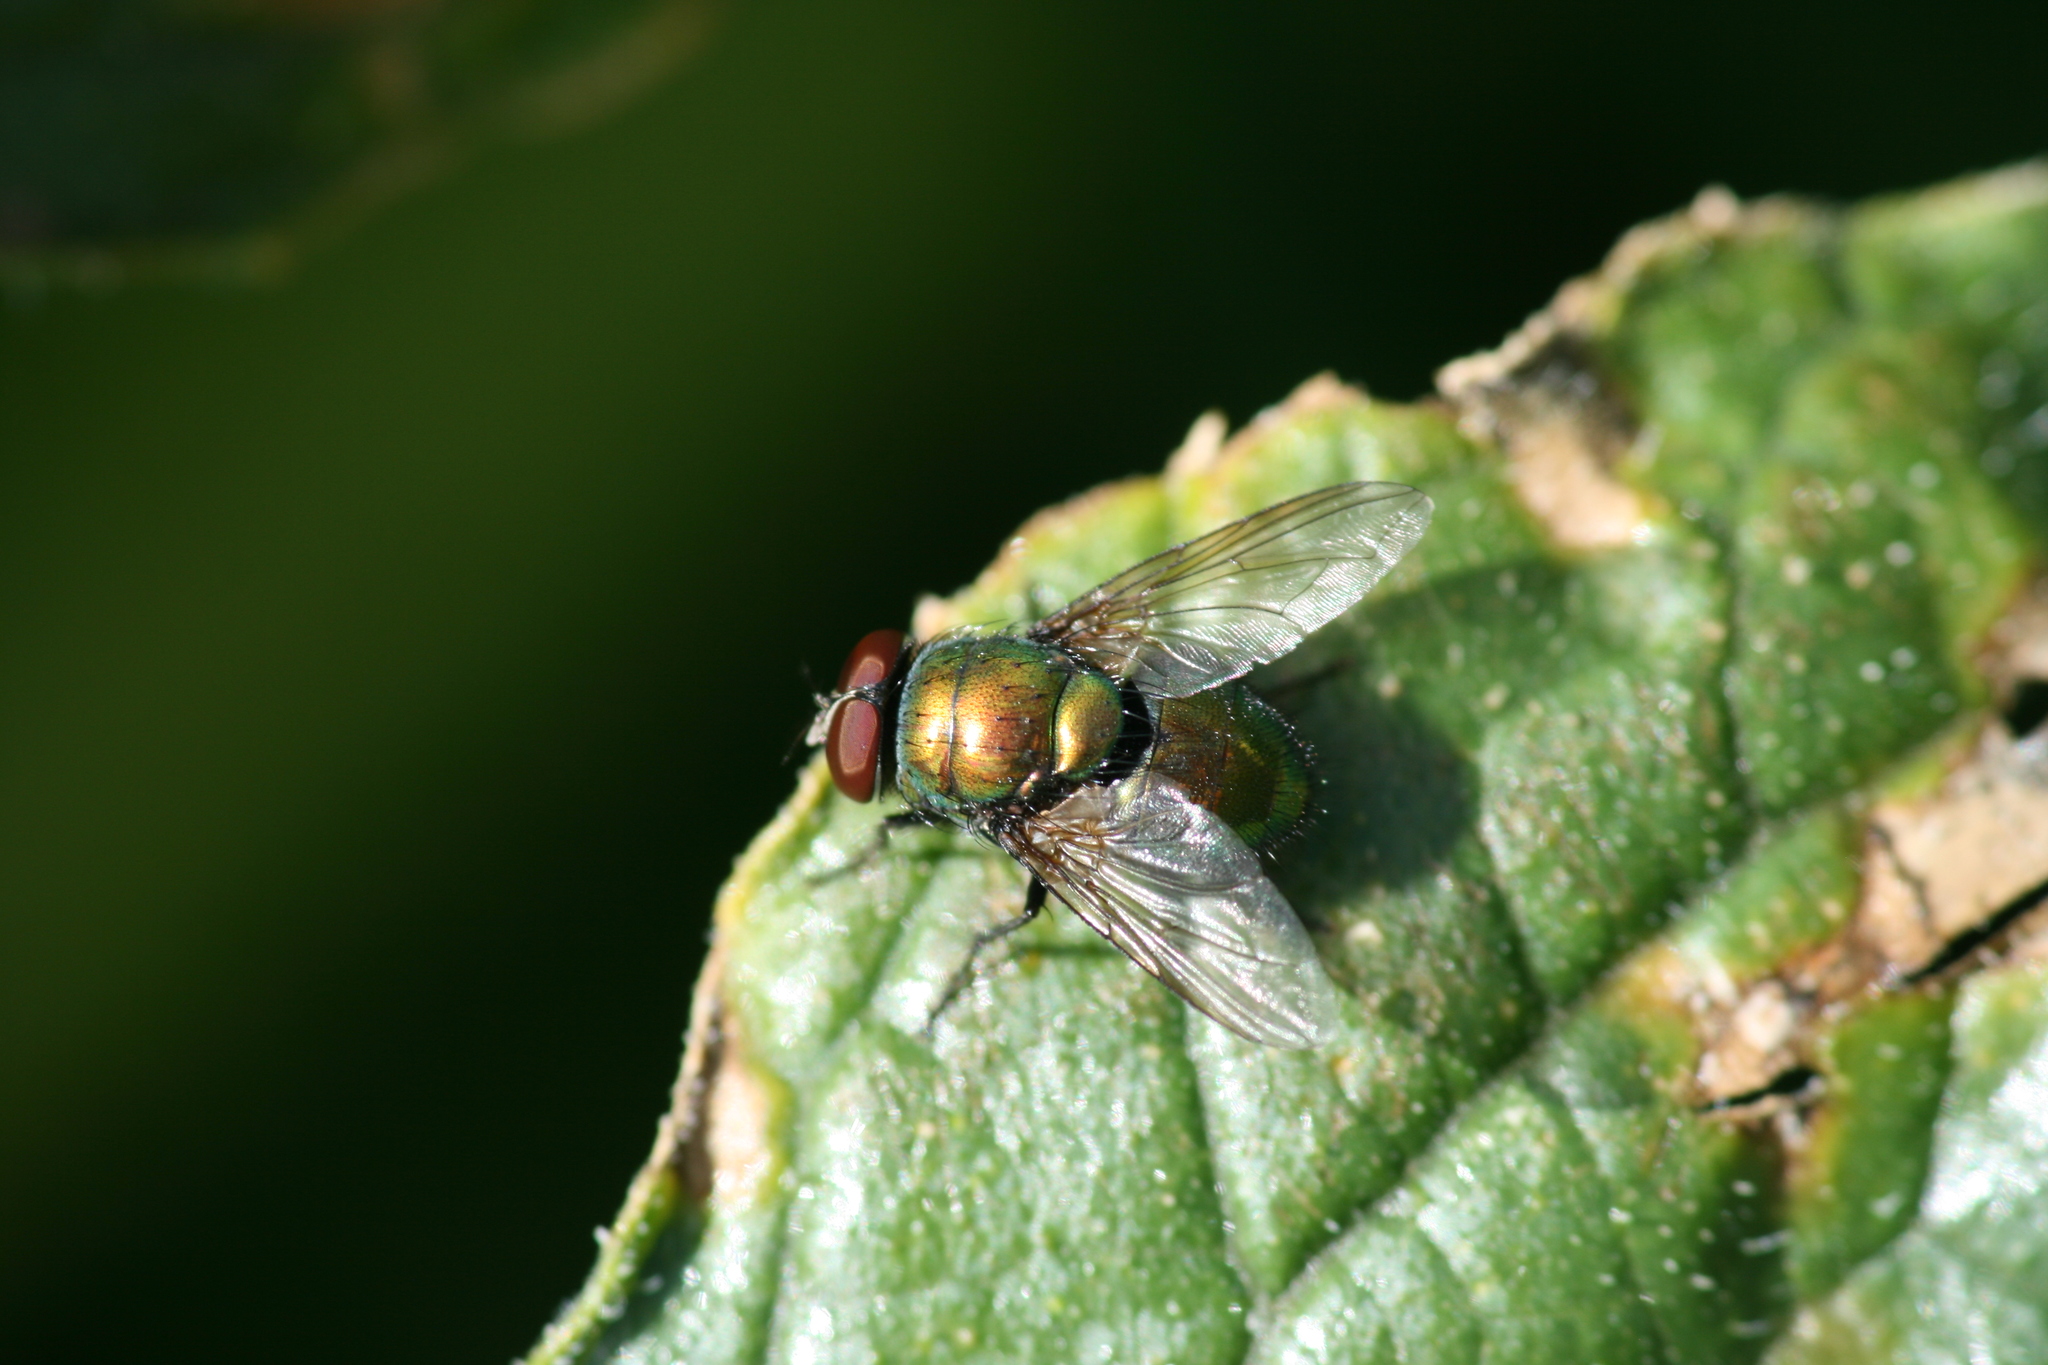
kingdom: Animalia
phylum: Arthropoda
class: Insecta
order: Diptera
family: Calliphoridae
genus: Lucilia
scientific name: Lucilia caesar
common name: Blow fly
